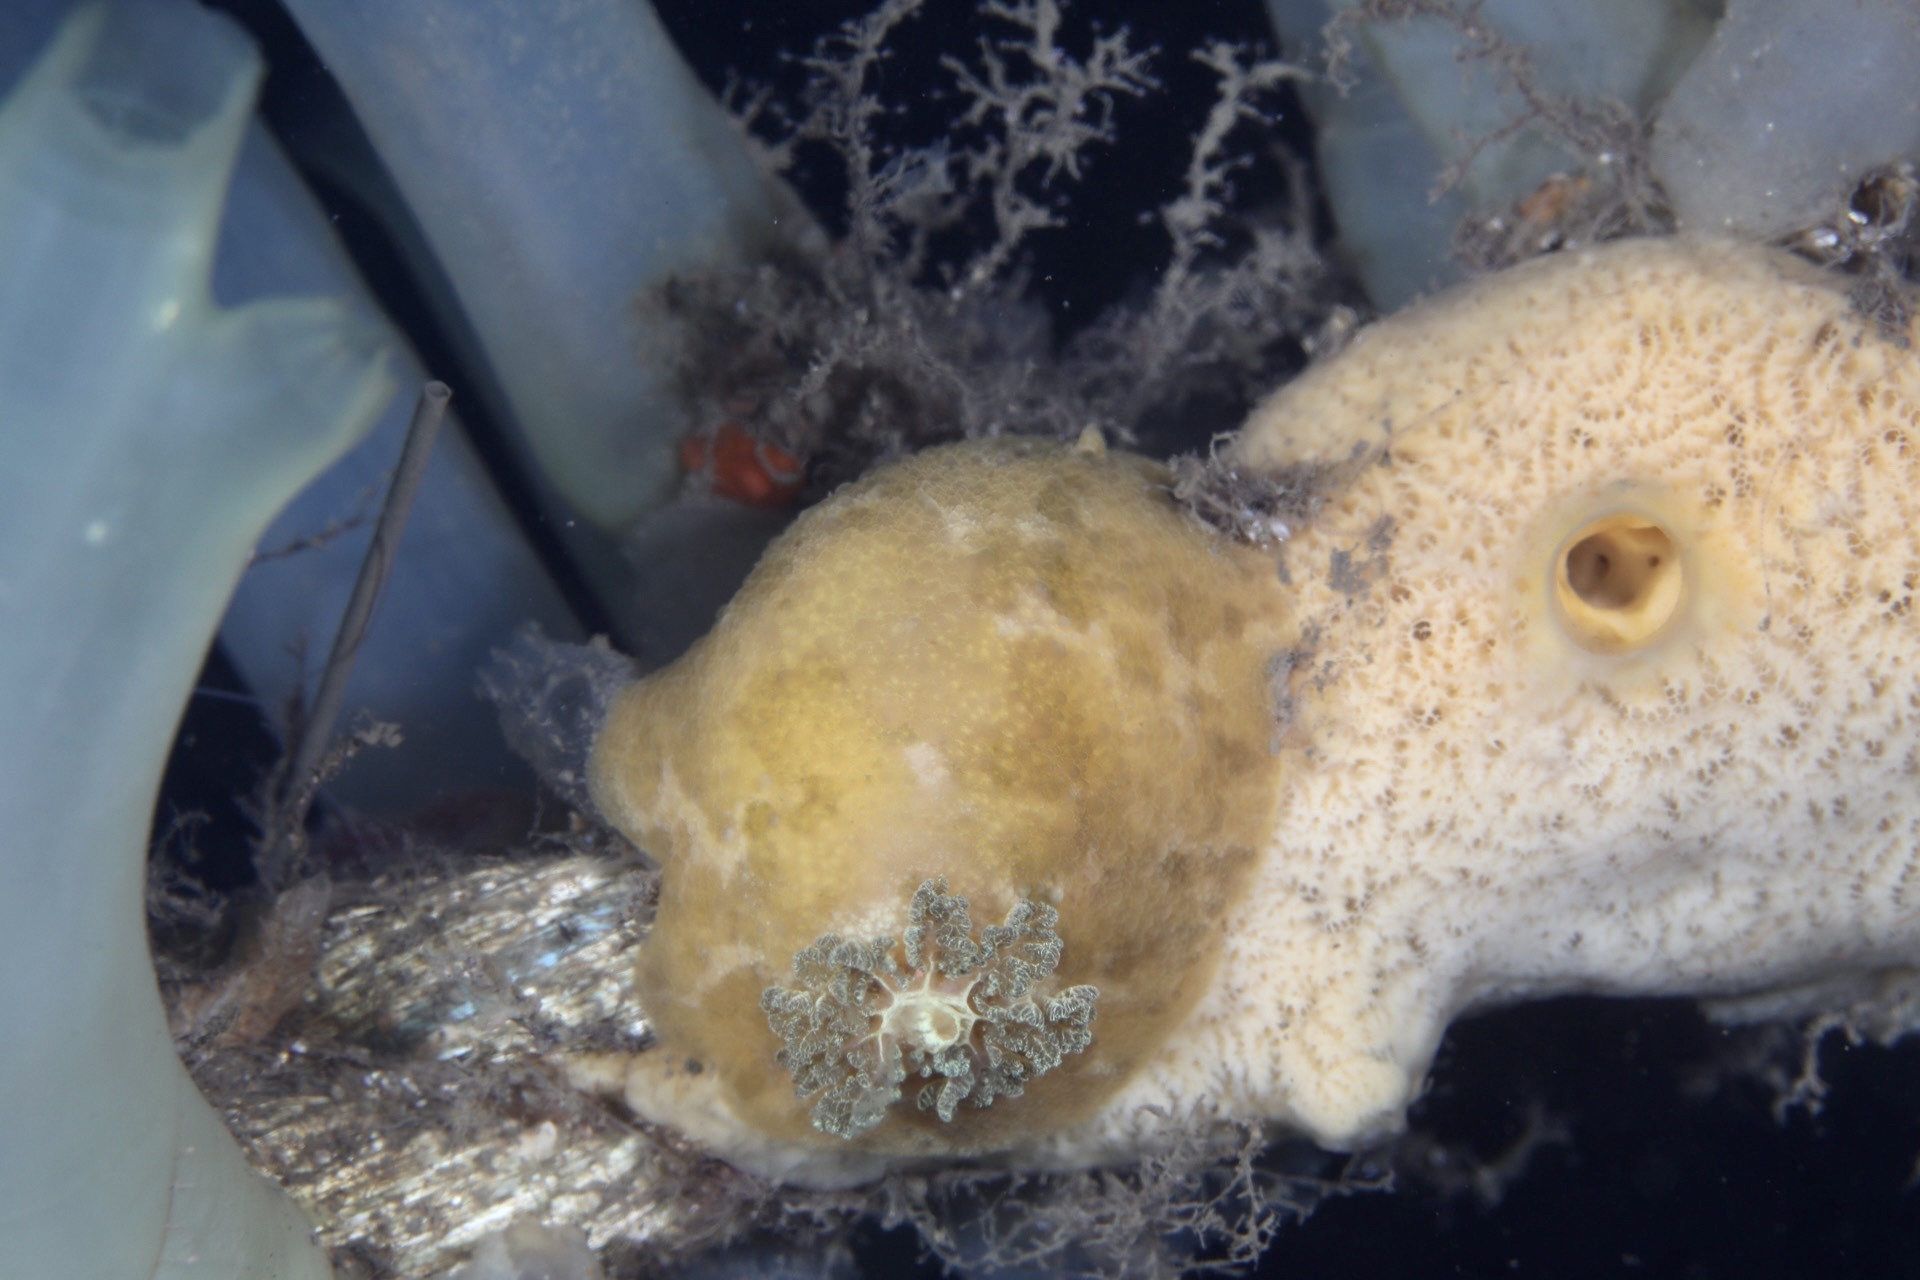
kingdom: Animalia
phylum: Mollusca
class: Gastropoda
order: Nudibranchia
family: Dorididae
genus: Doris
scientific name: Doris pseudoargus
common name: Sea lemon
